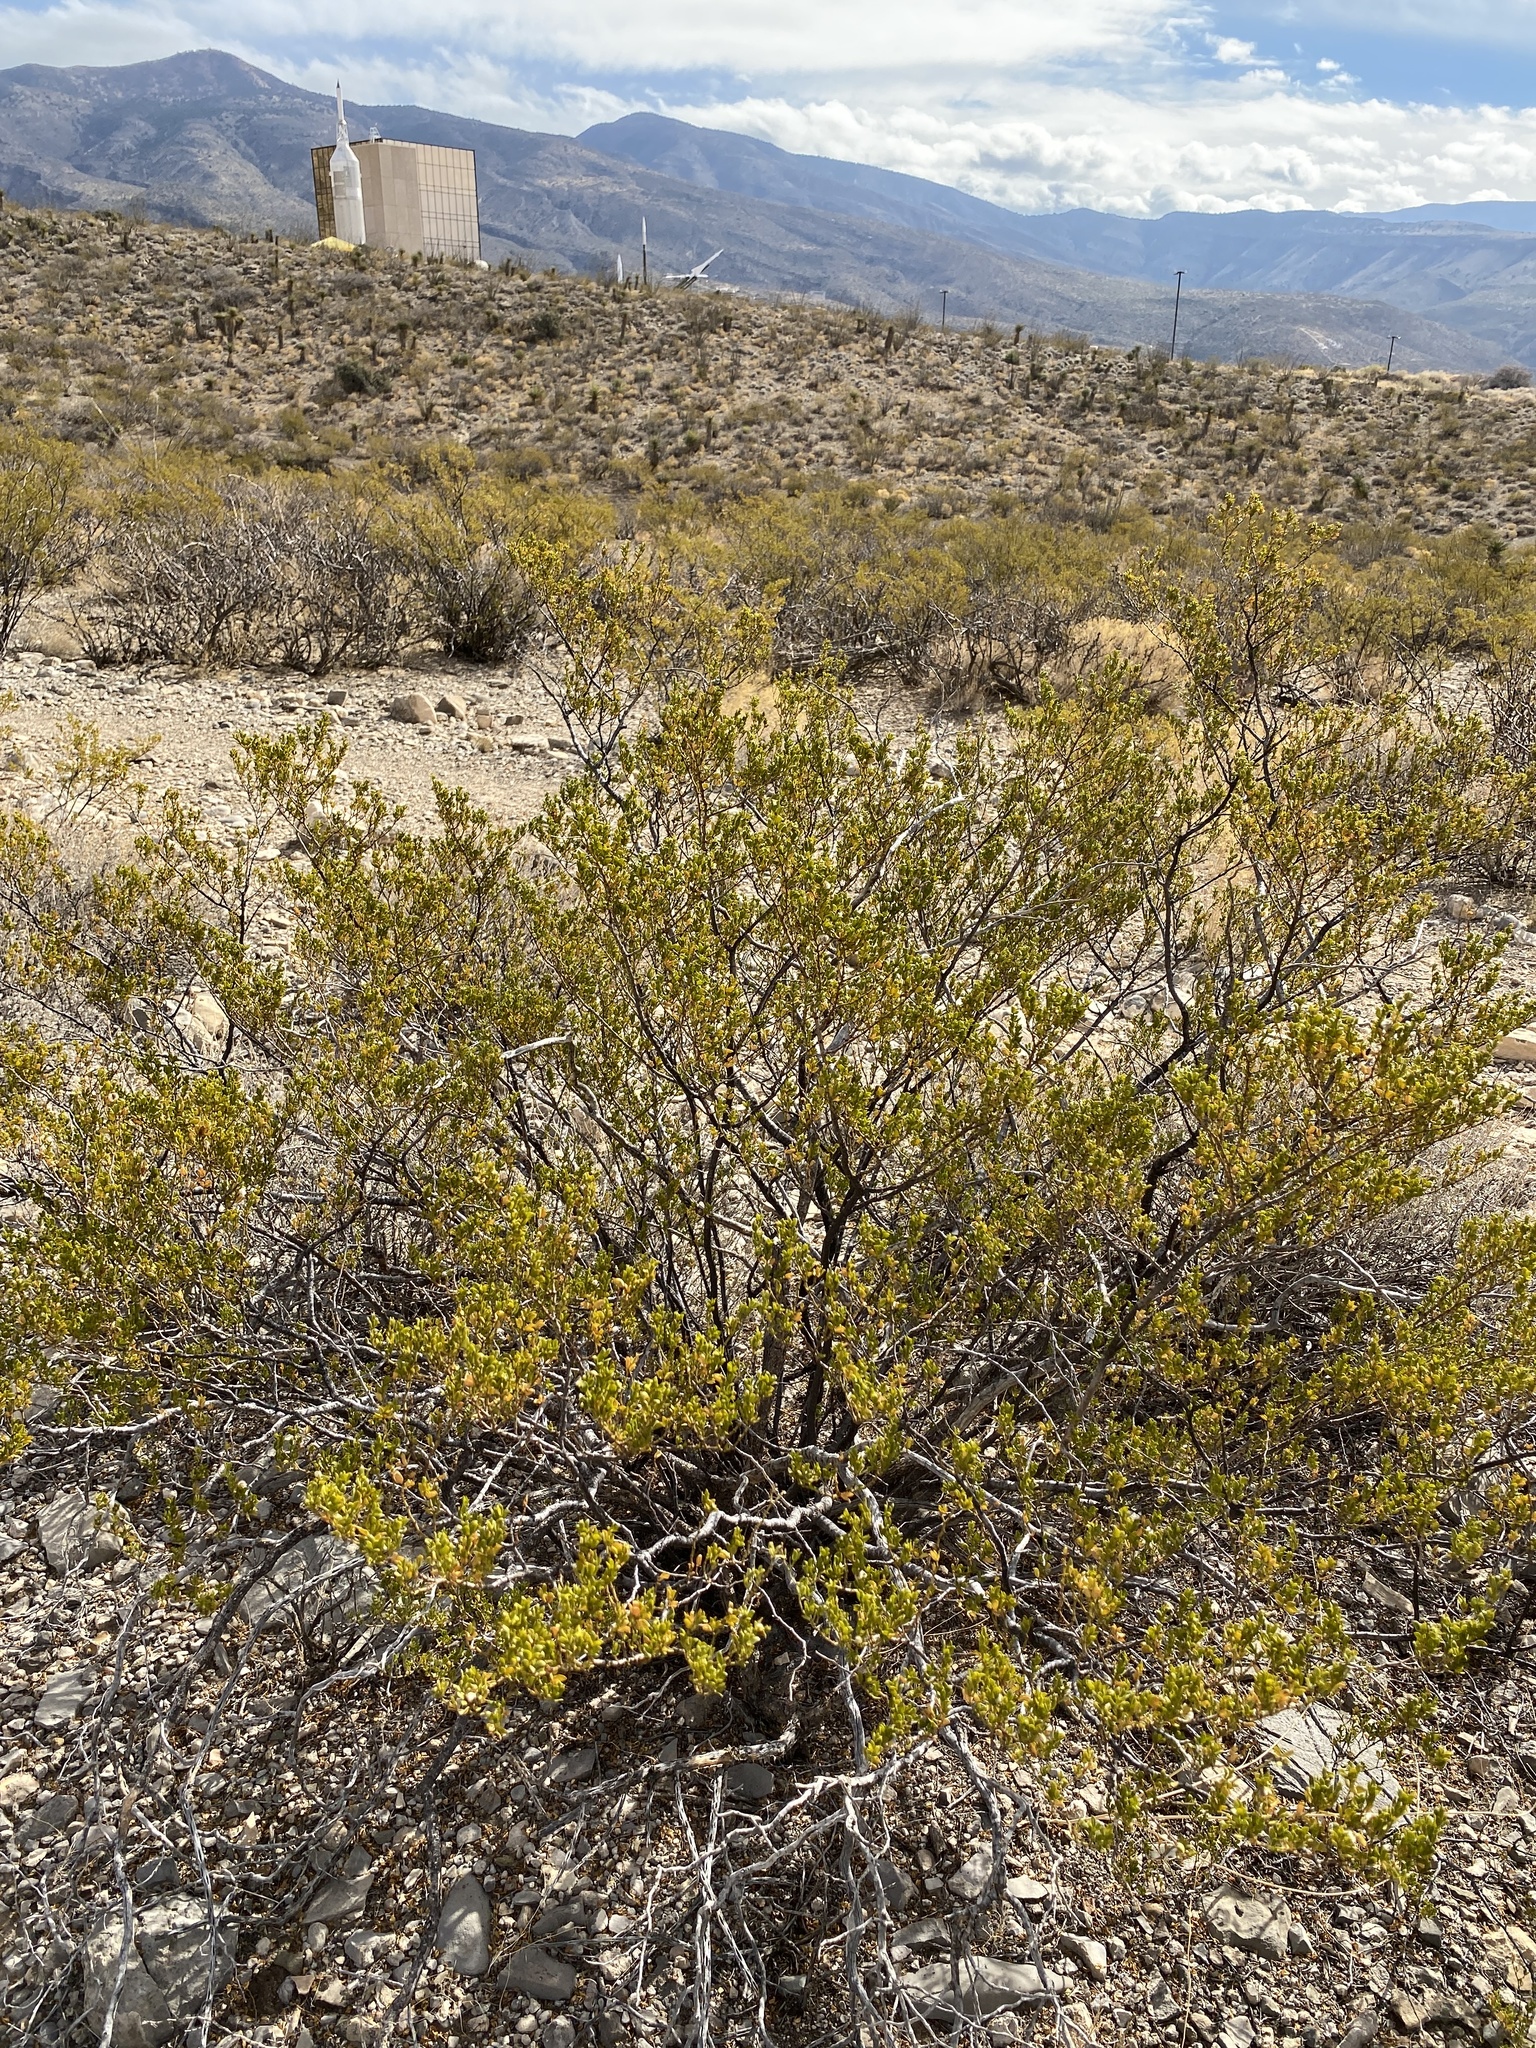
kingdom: Plantae
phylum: Tracheophyta
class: Magnoliopsida
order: Zygophyllales
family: Zygophyllaceae
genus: Larrea
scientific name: Larrea tridentata
